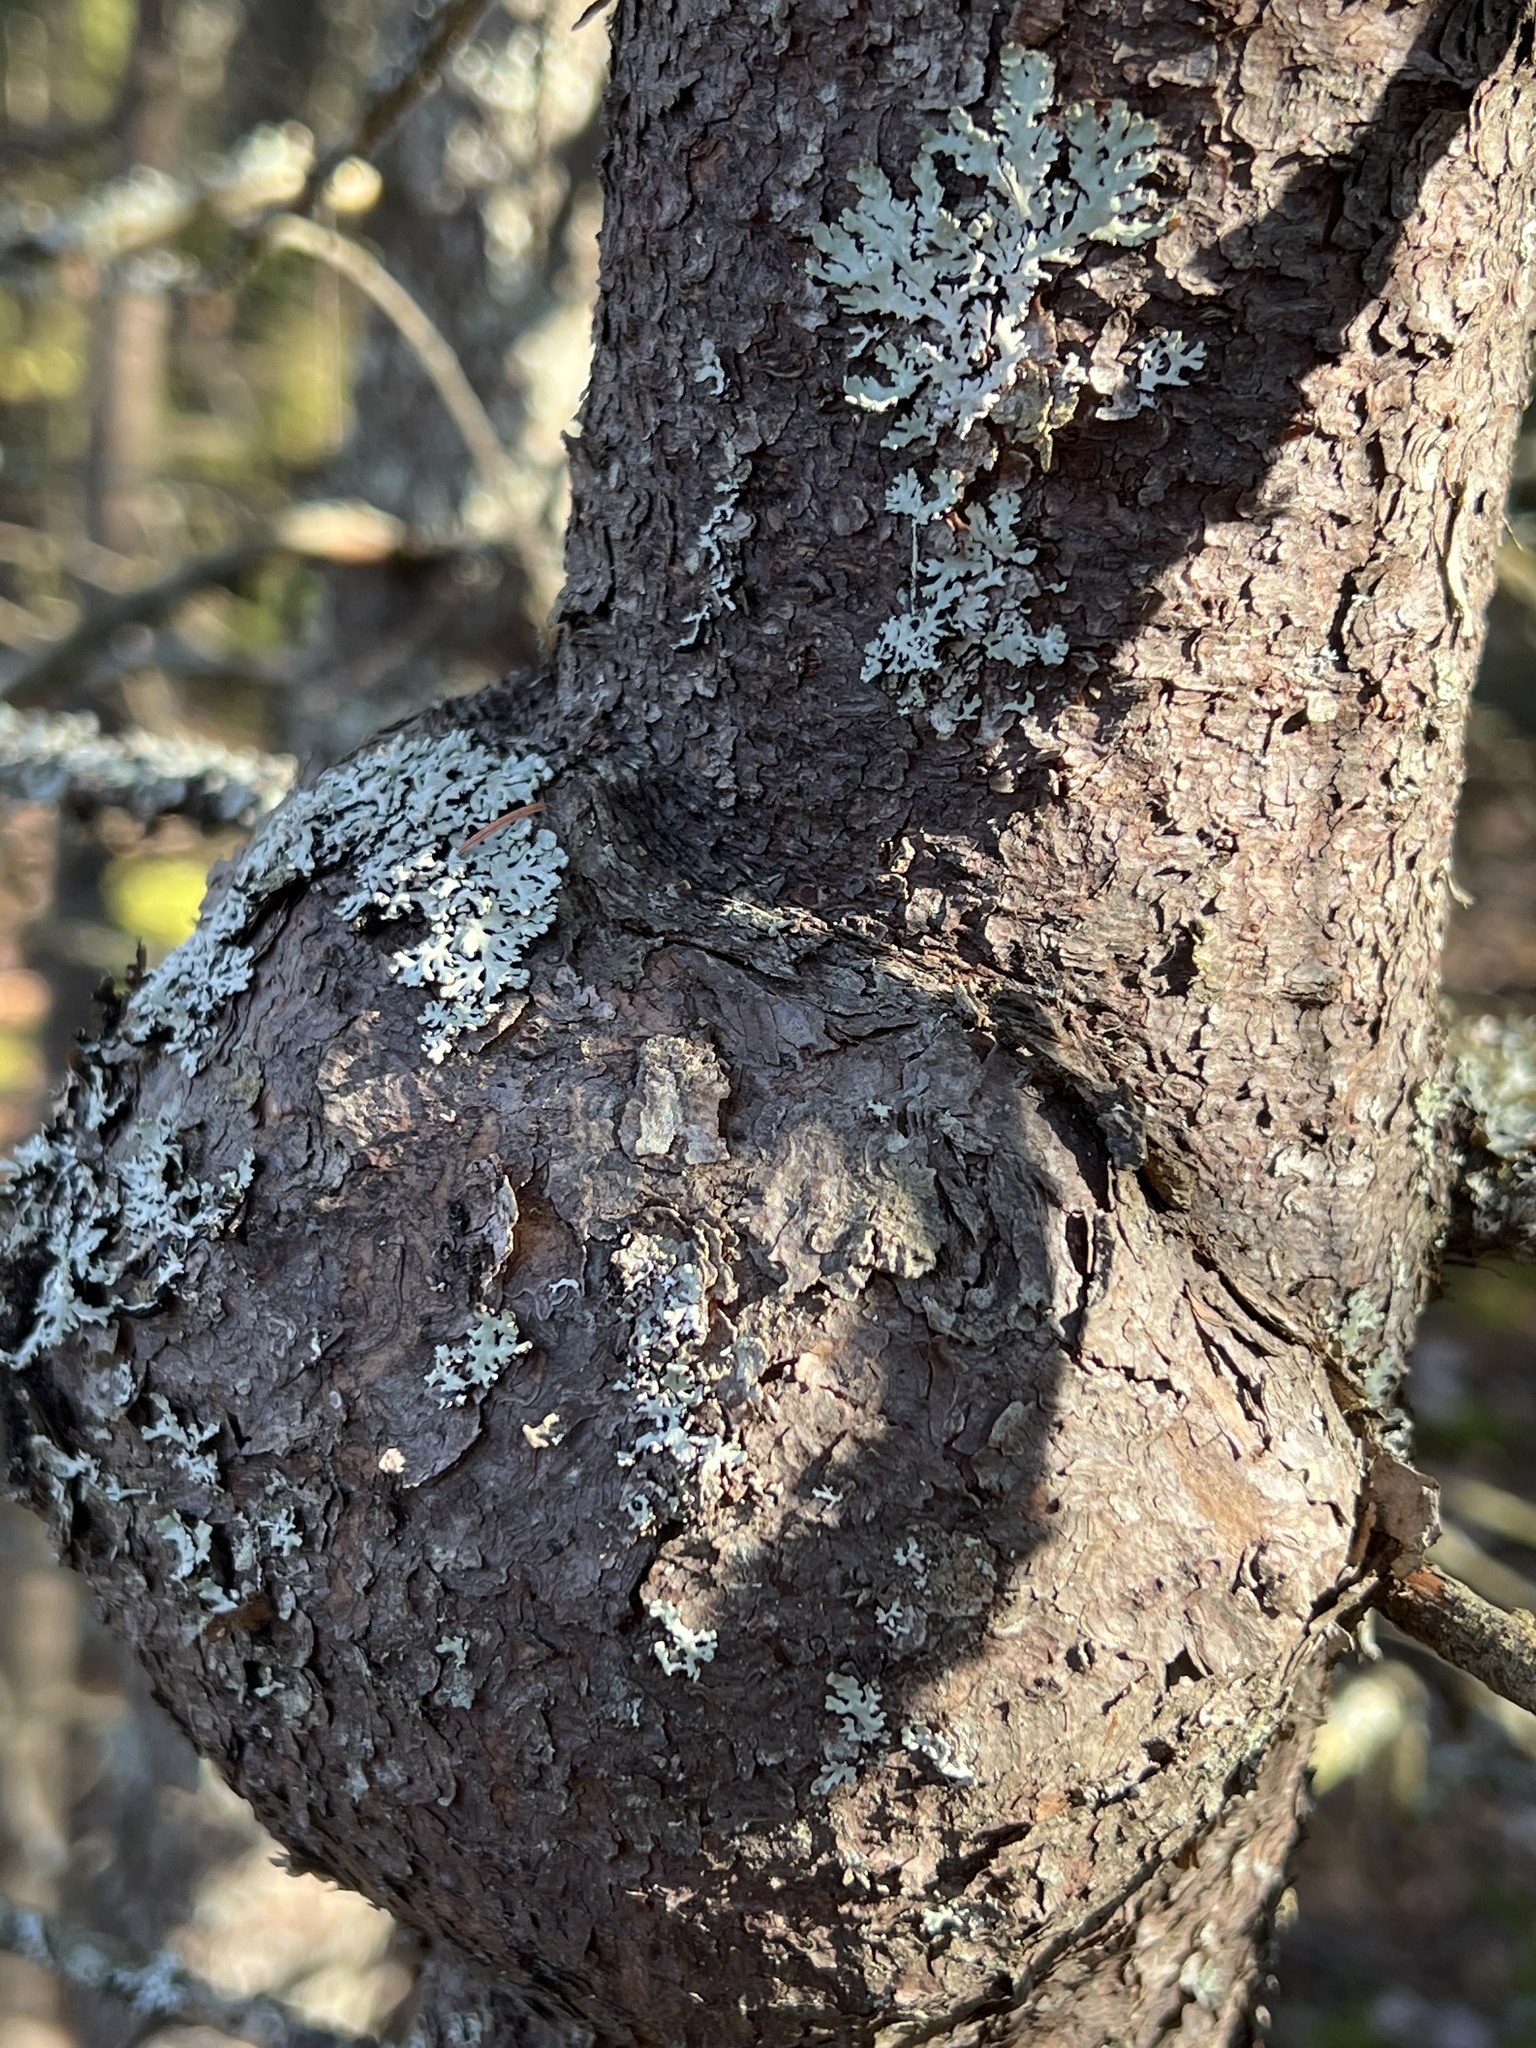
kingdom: Bacteria
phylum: Proteobacteria
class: Alphaproteobacteria
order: Rhizobiales
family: Rhizobiaceae
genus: Rhizobium
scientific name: Rhizobium Agrobacterium radiobacter
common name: Bacterial crown gall
